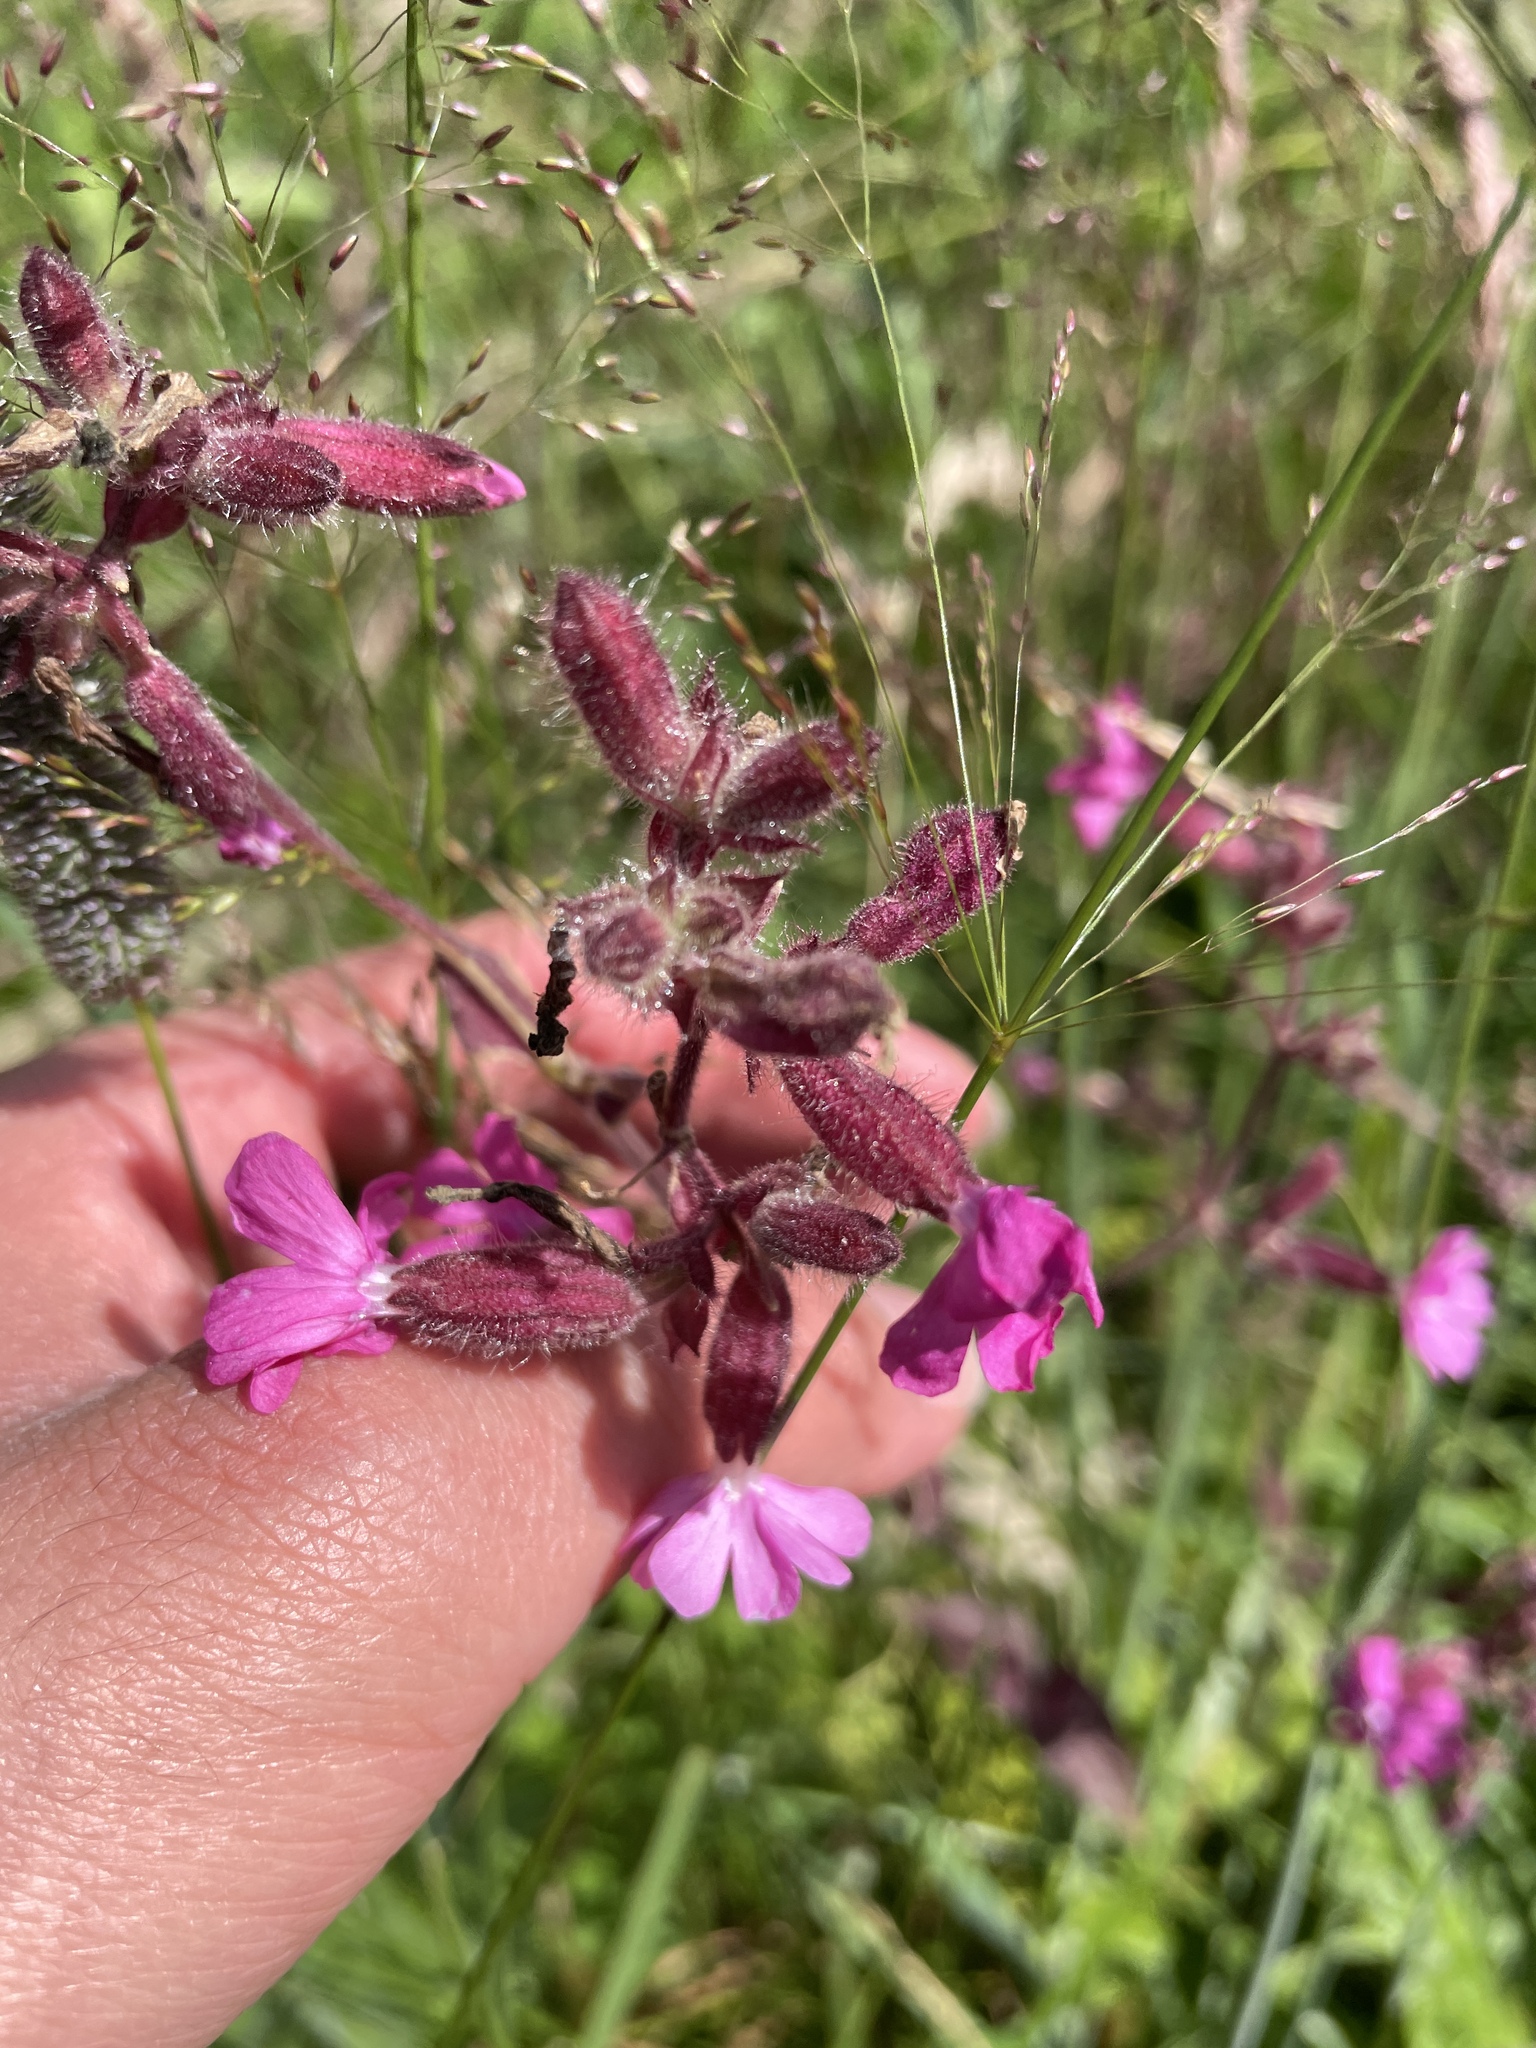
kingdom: Plantae
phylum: Tracheophyta
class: Magnoliopsida
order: Caryophyllales
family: Caryophyllaceae
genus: Silene
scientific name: Silene dioica
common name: Red campion
